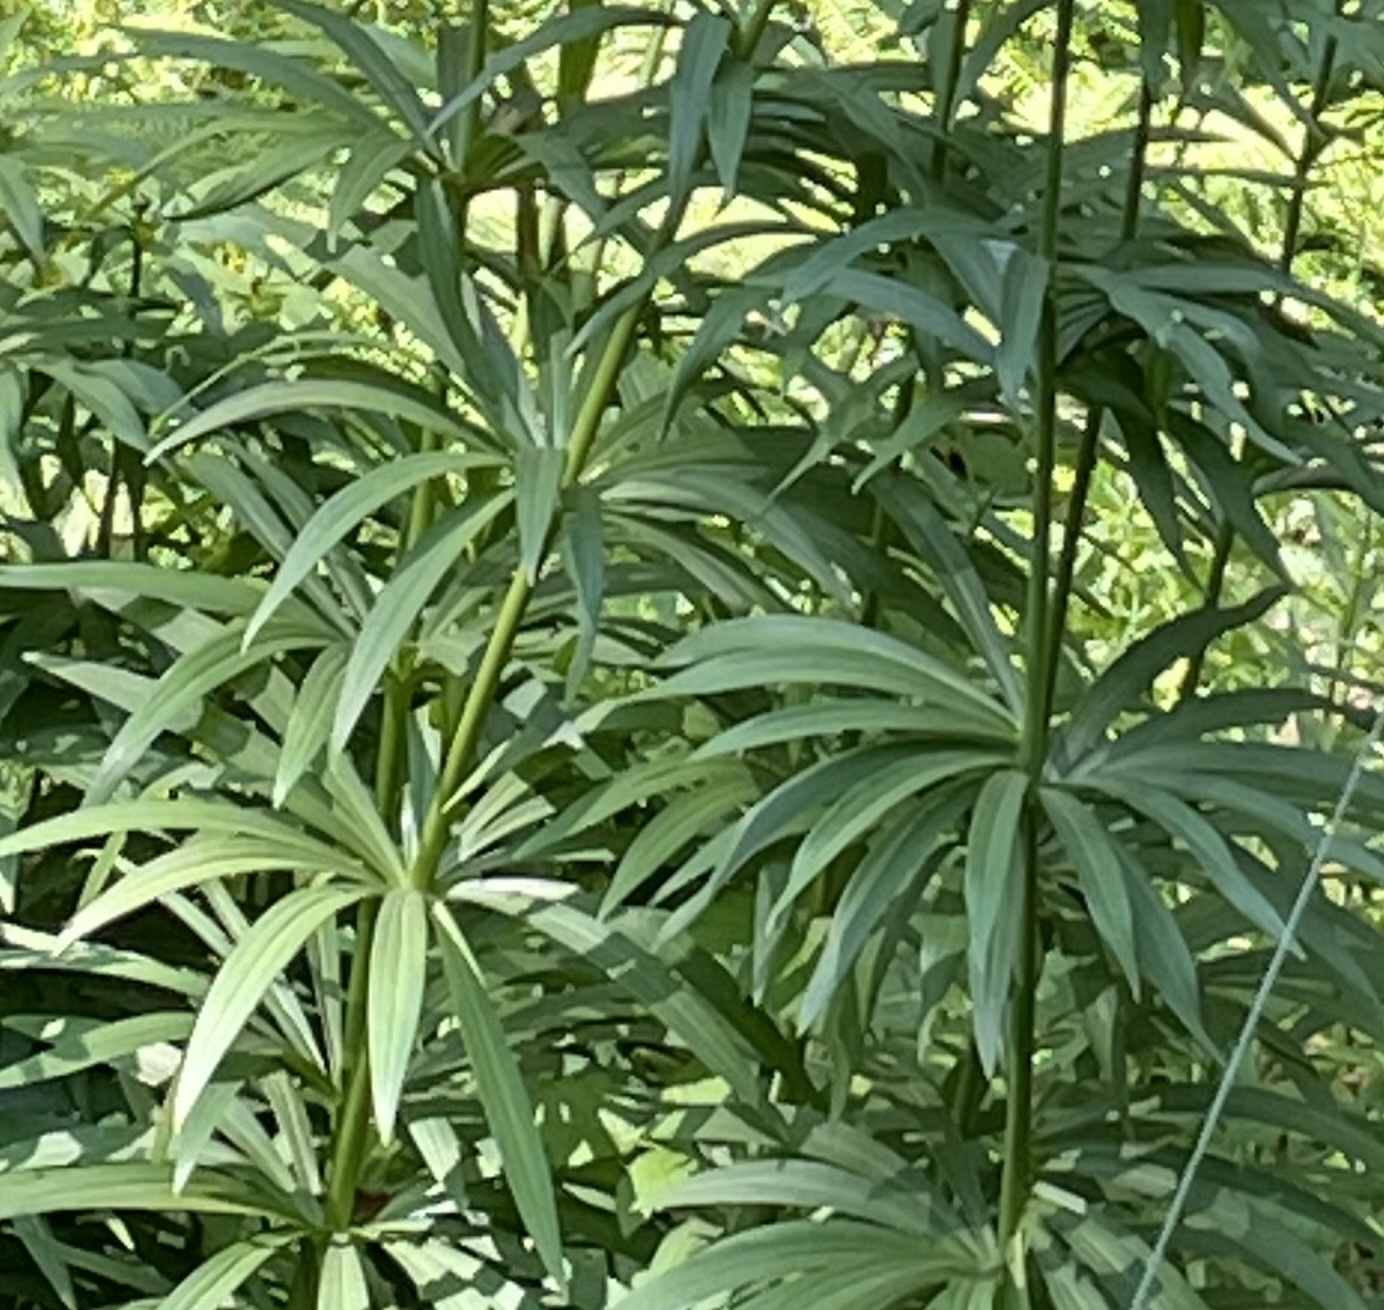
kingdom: Plantae
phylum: Tracheophyta
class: Liliopsida
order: Liliales
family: Liliaceae
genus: Lilium
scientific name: Lilium pardalinum
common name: Panther lily
